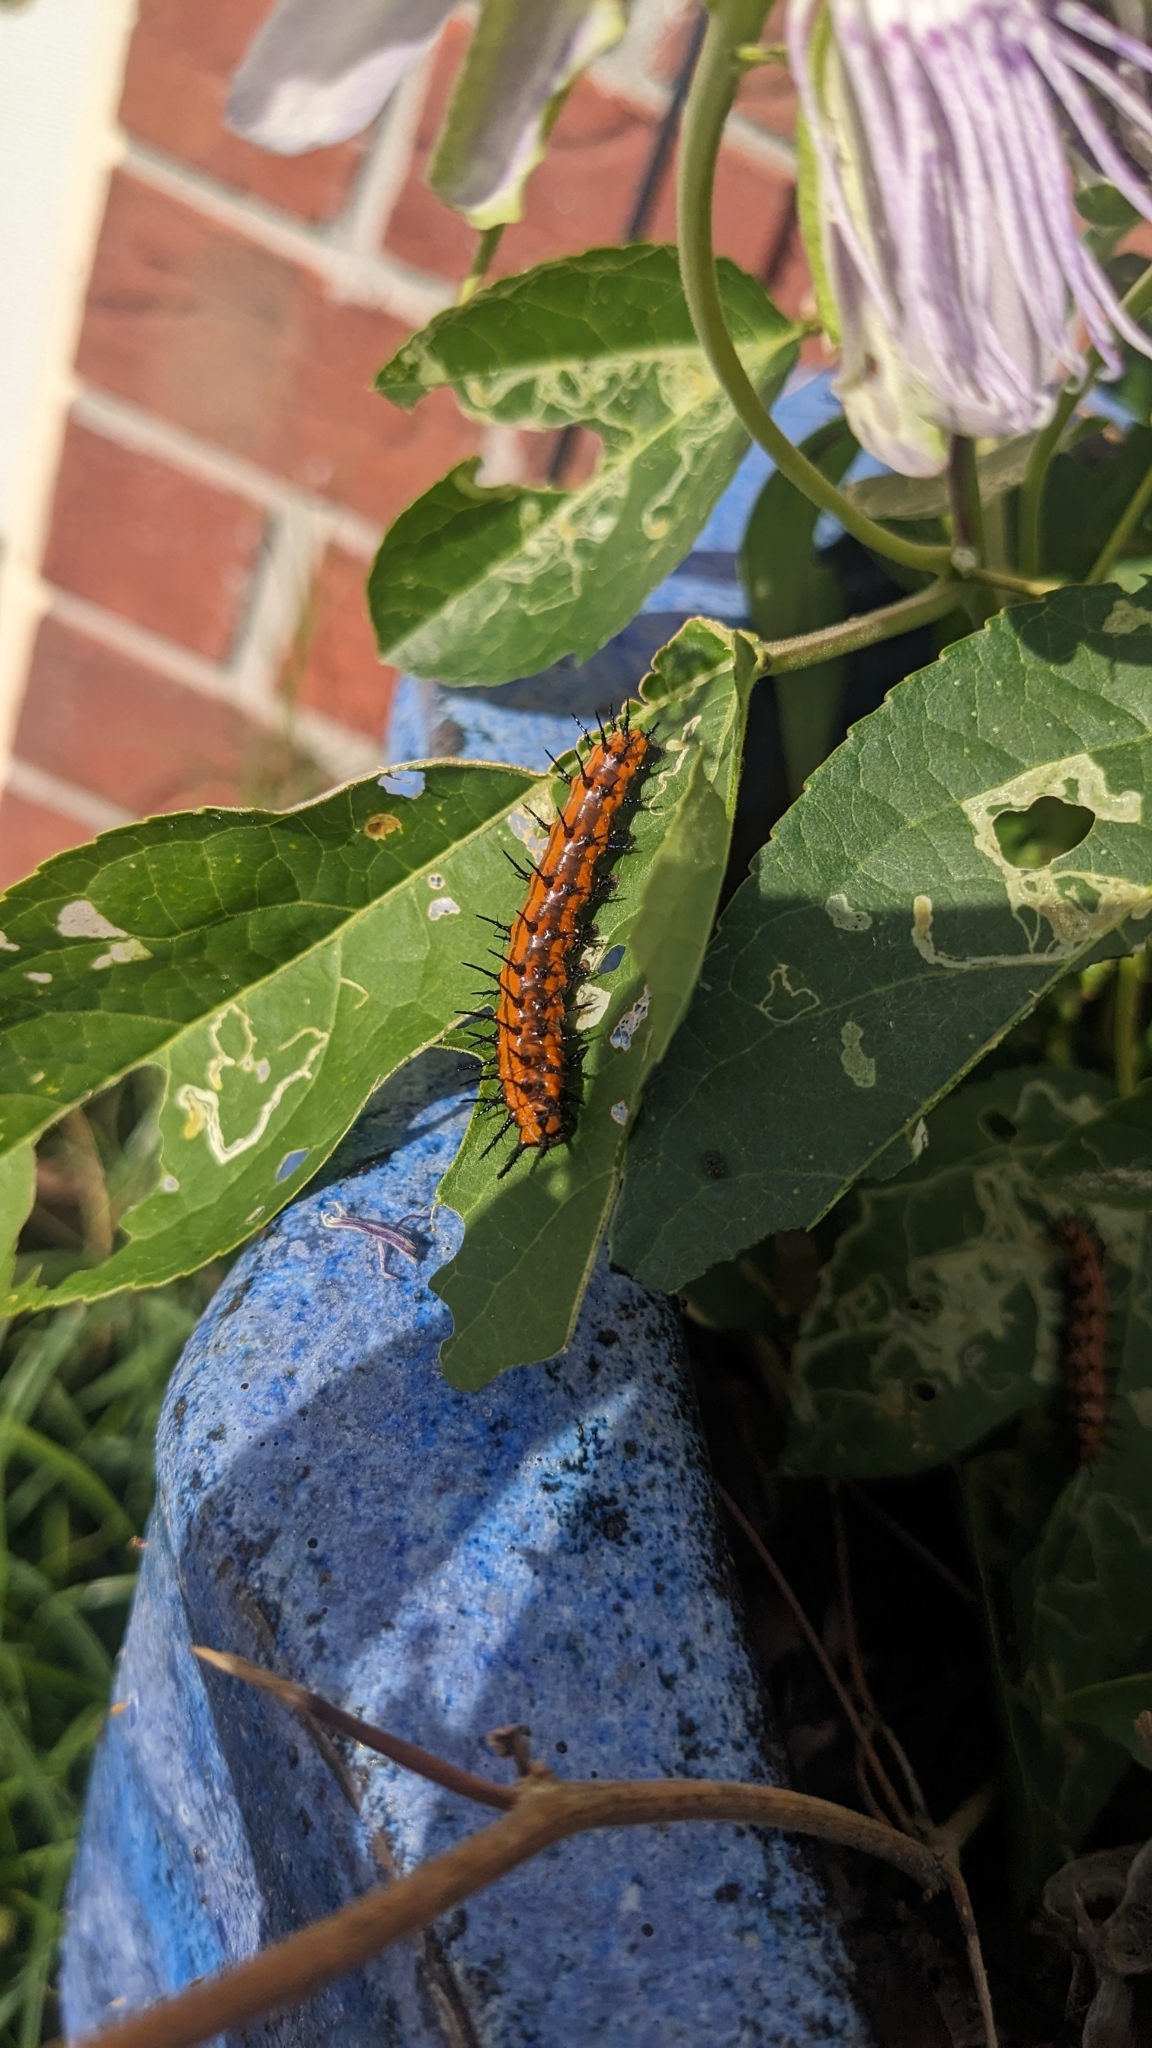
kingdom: Animalia
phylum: Arthropoda
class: Insecta
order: Lepidoptera
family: Nymphalidae
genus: Dione
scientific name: Dione vanillae
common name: Gulf fritillary
